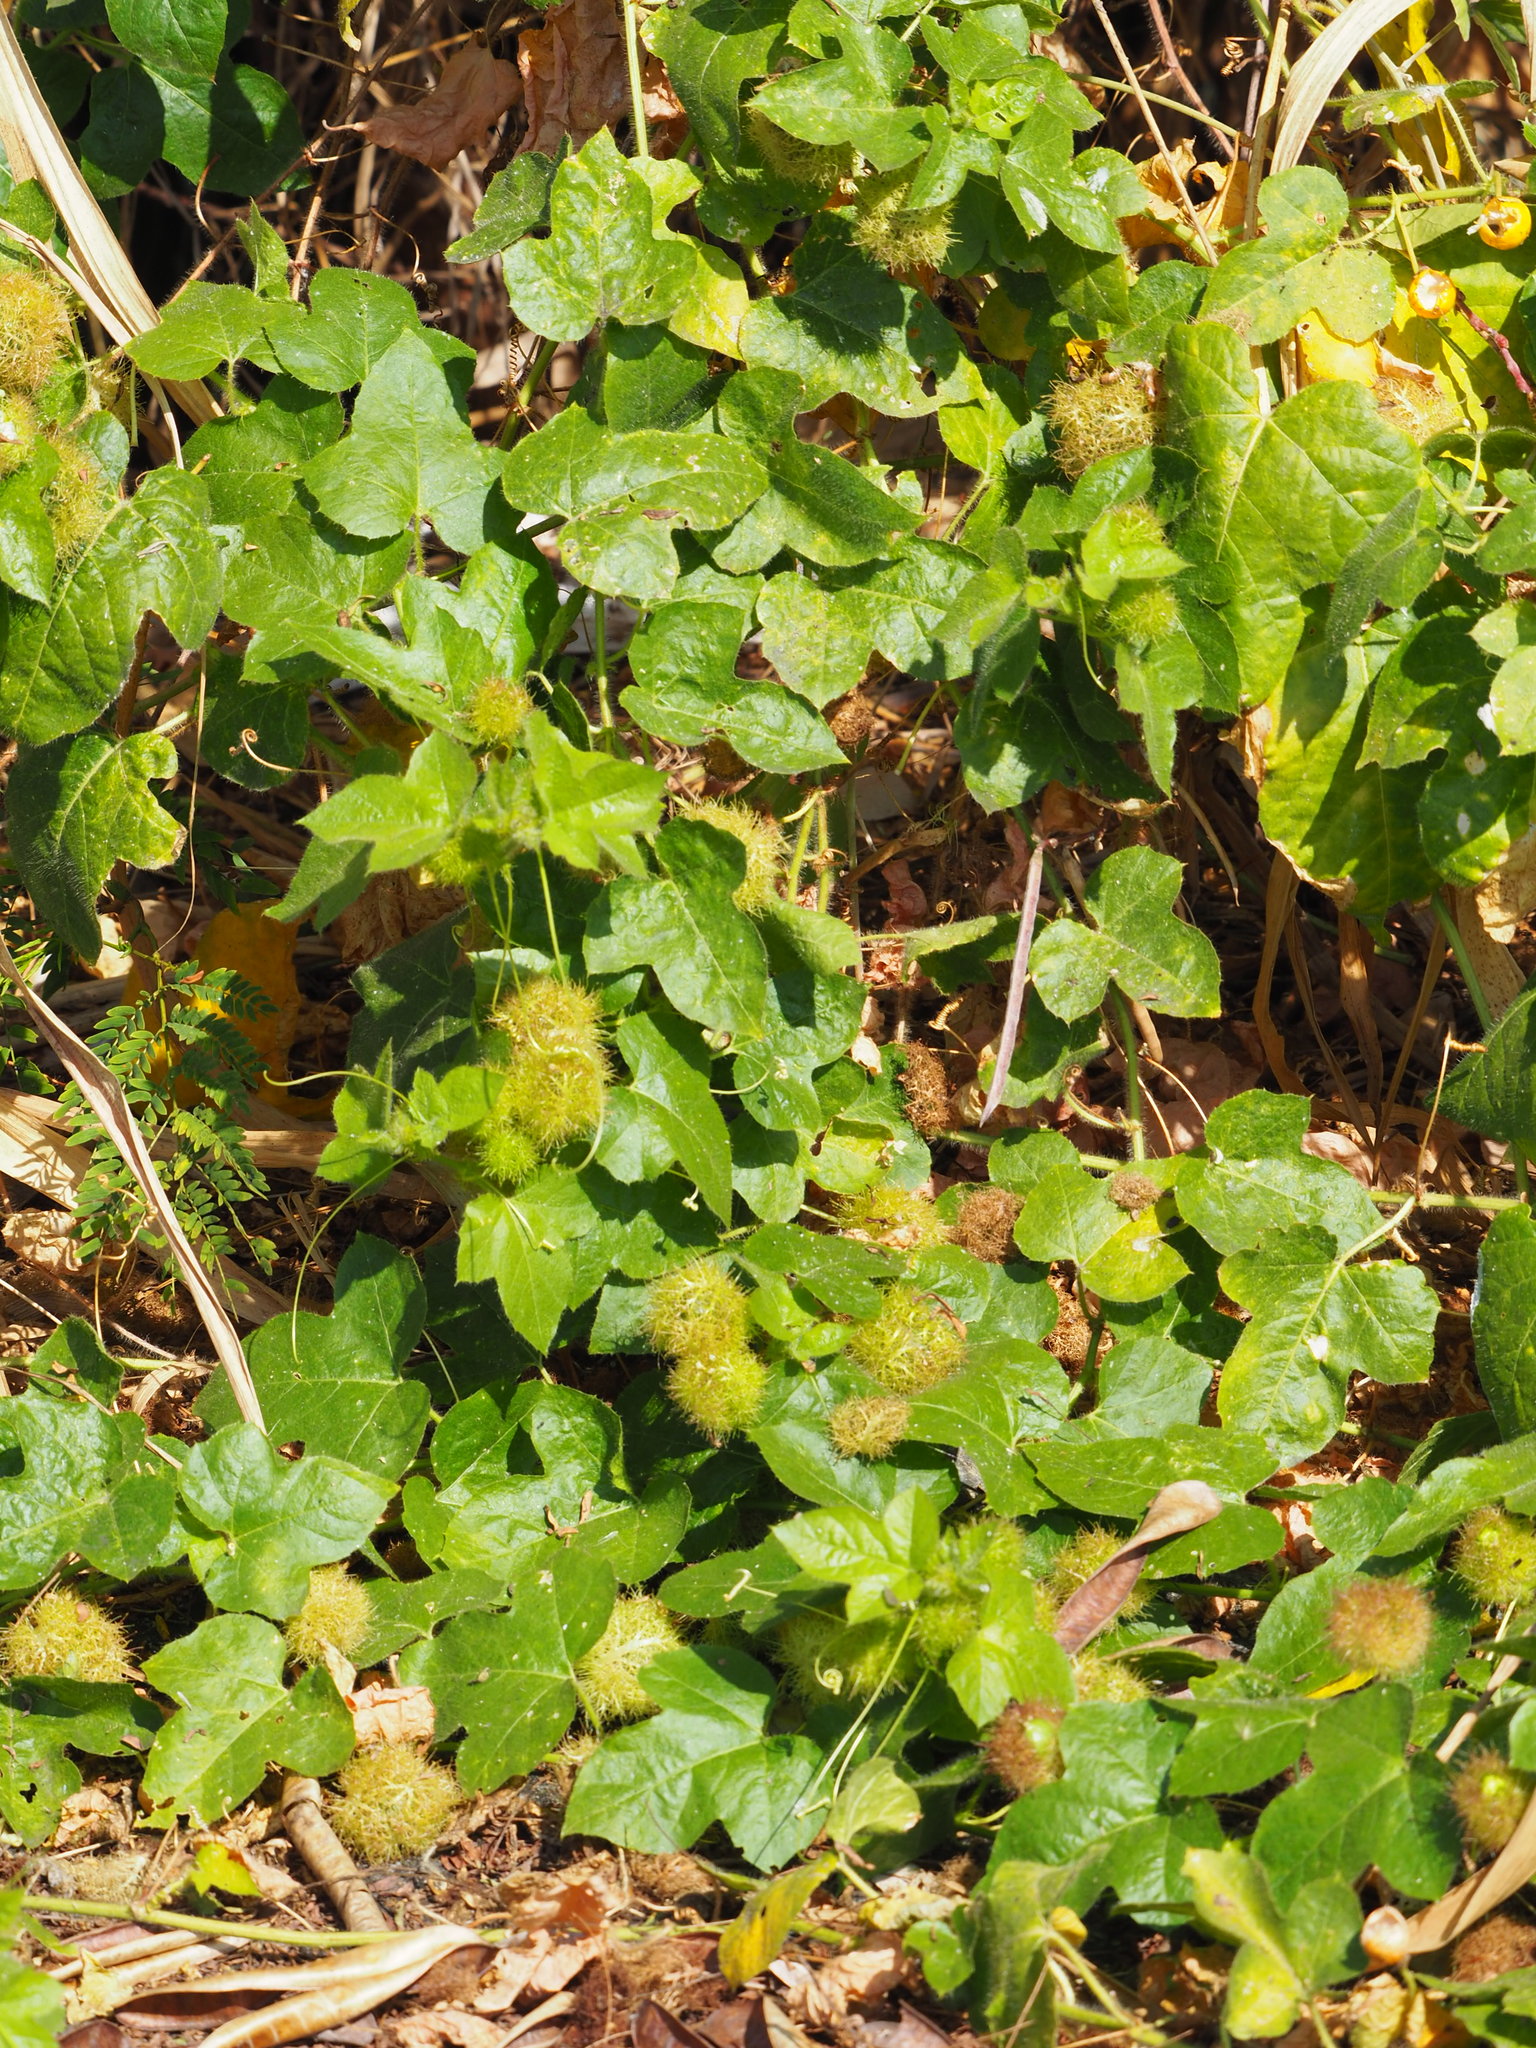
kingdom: Plantae
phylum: Tracheophyta
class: Magnoliopsida
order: Malpighiales
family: Passifloraceae
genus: Passiflora
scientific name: Passiflora vesicaria
